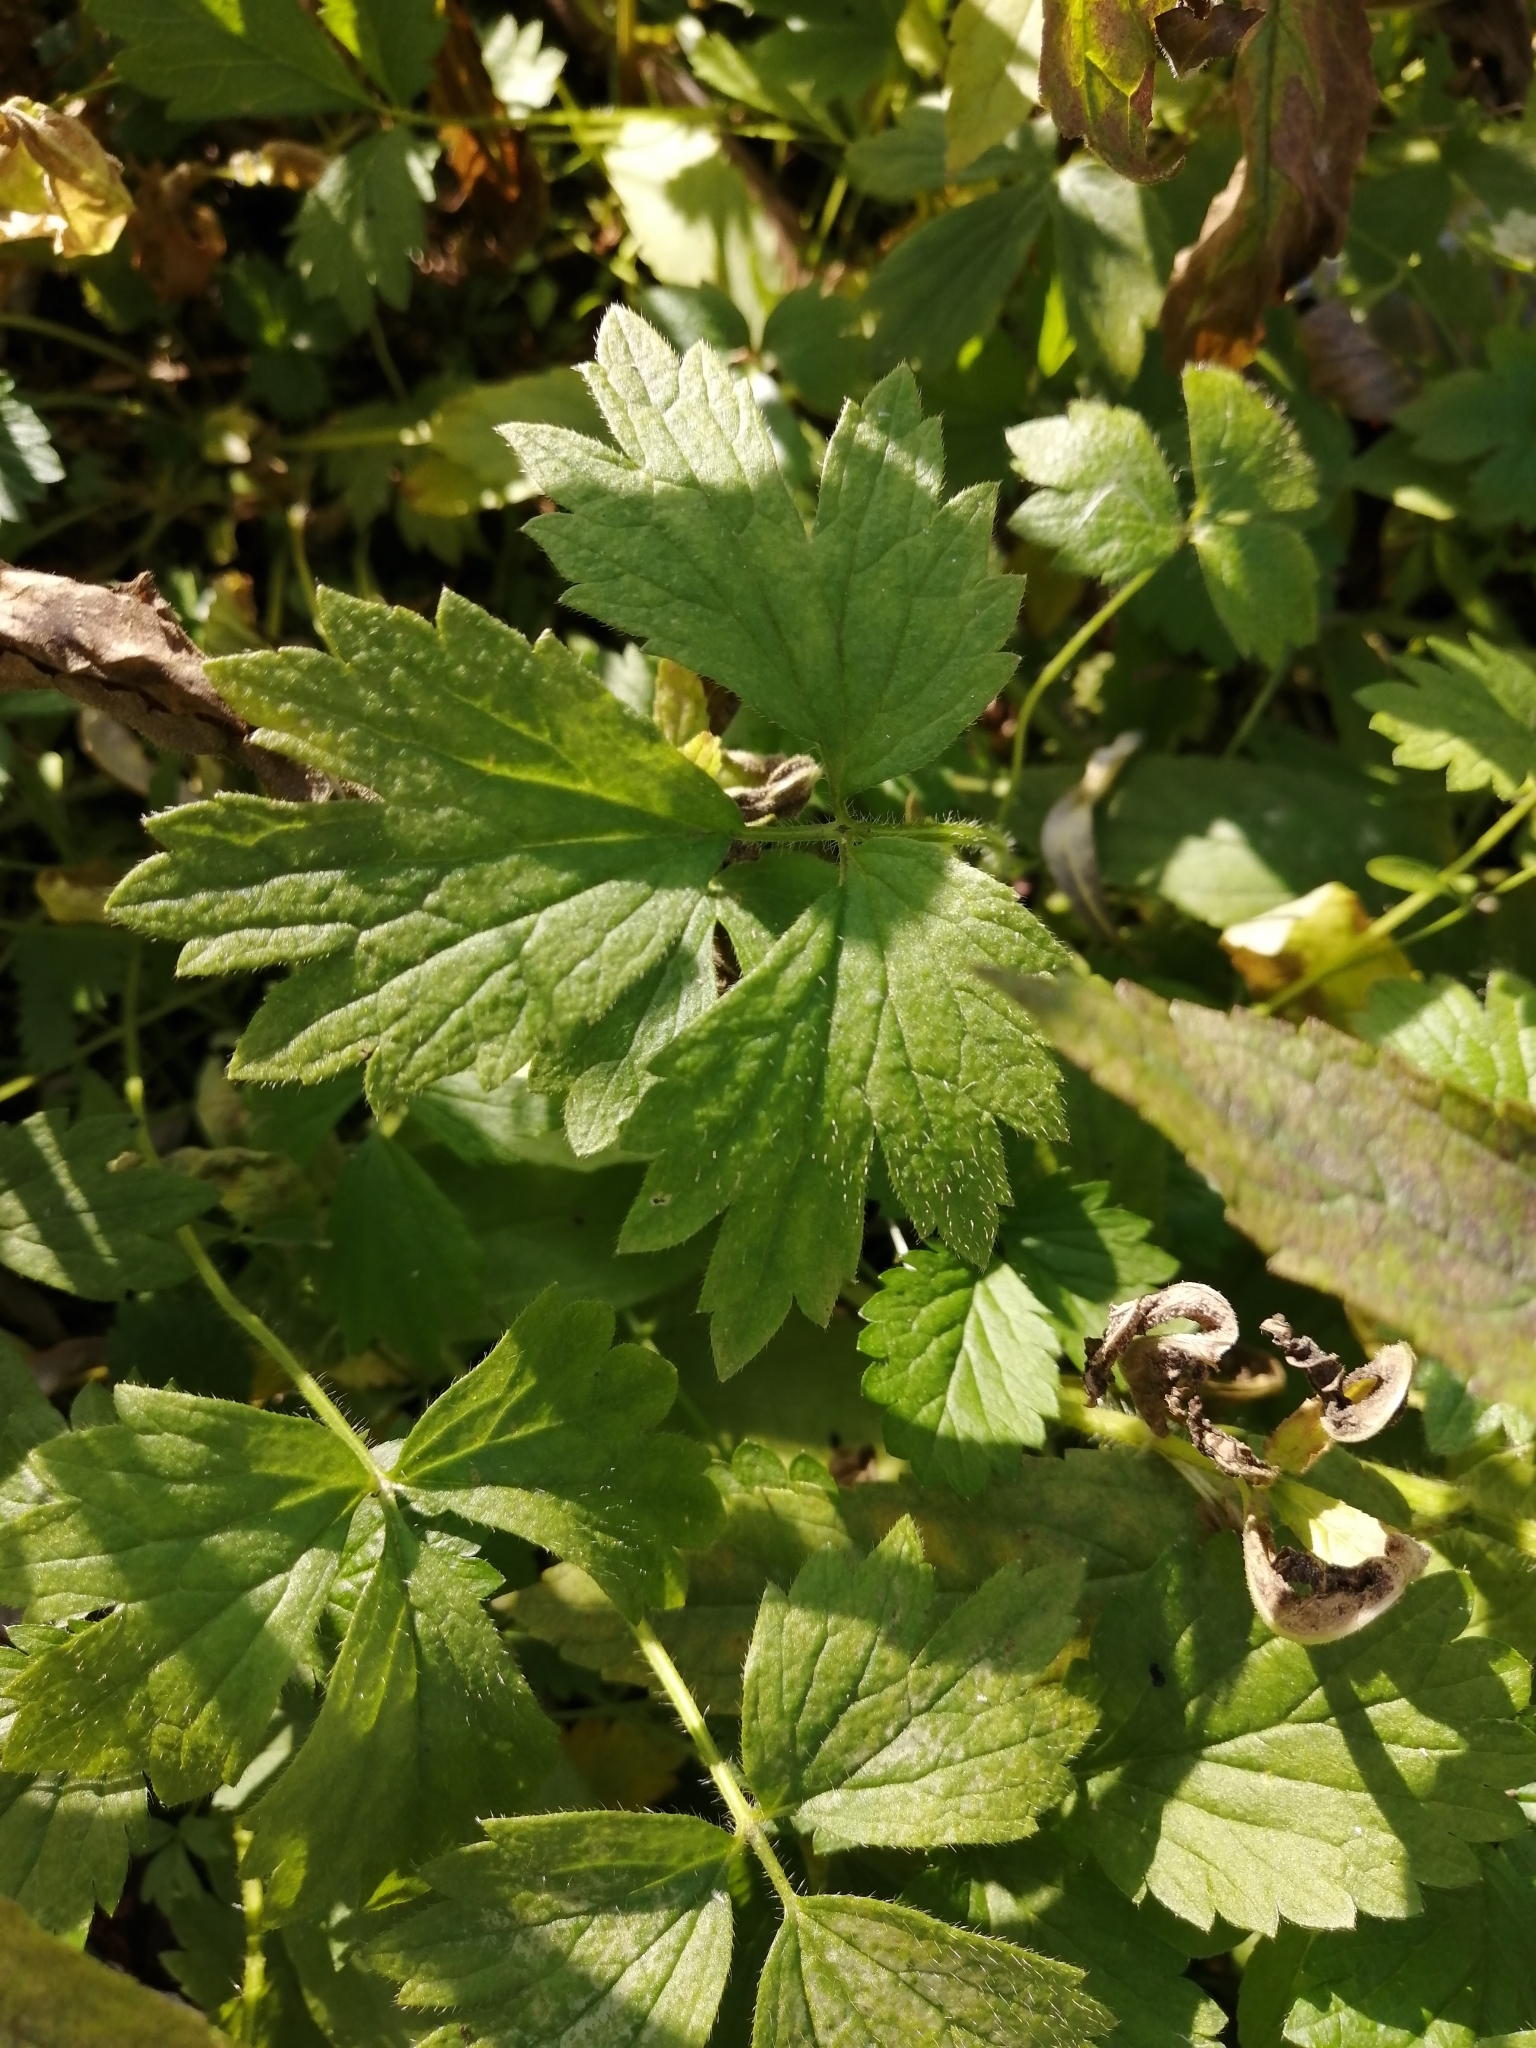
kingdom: Plantae
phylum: Tracheophyta
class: Magnoliopsida
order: Ranunculales
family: Ranunculaceae
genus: Ranunculus
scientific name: Ranunculus repens
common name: Creeping buttercup
